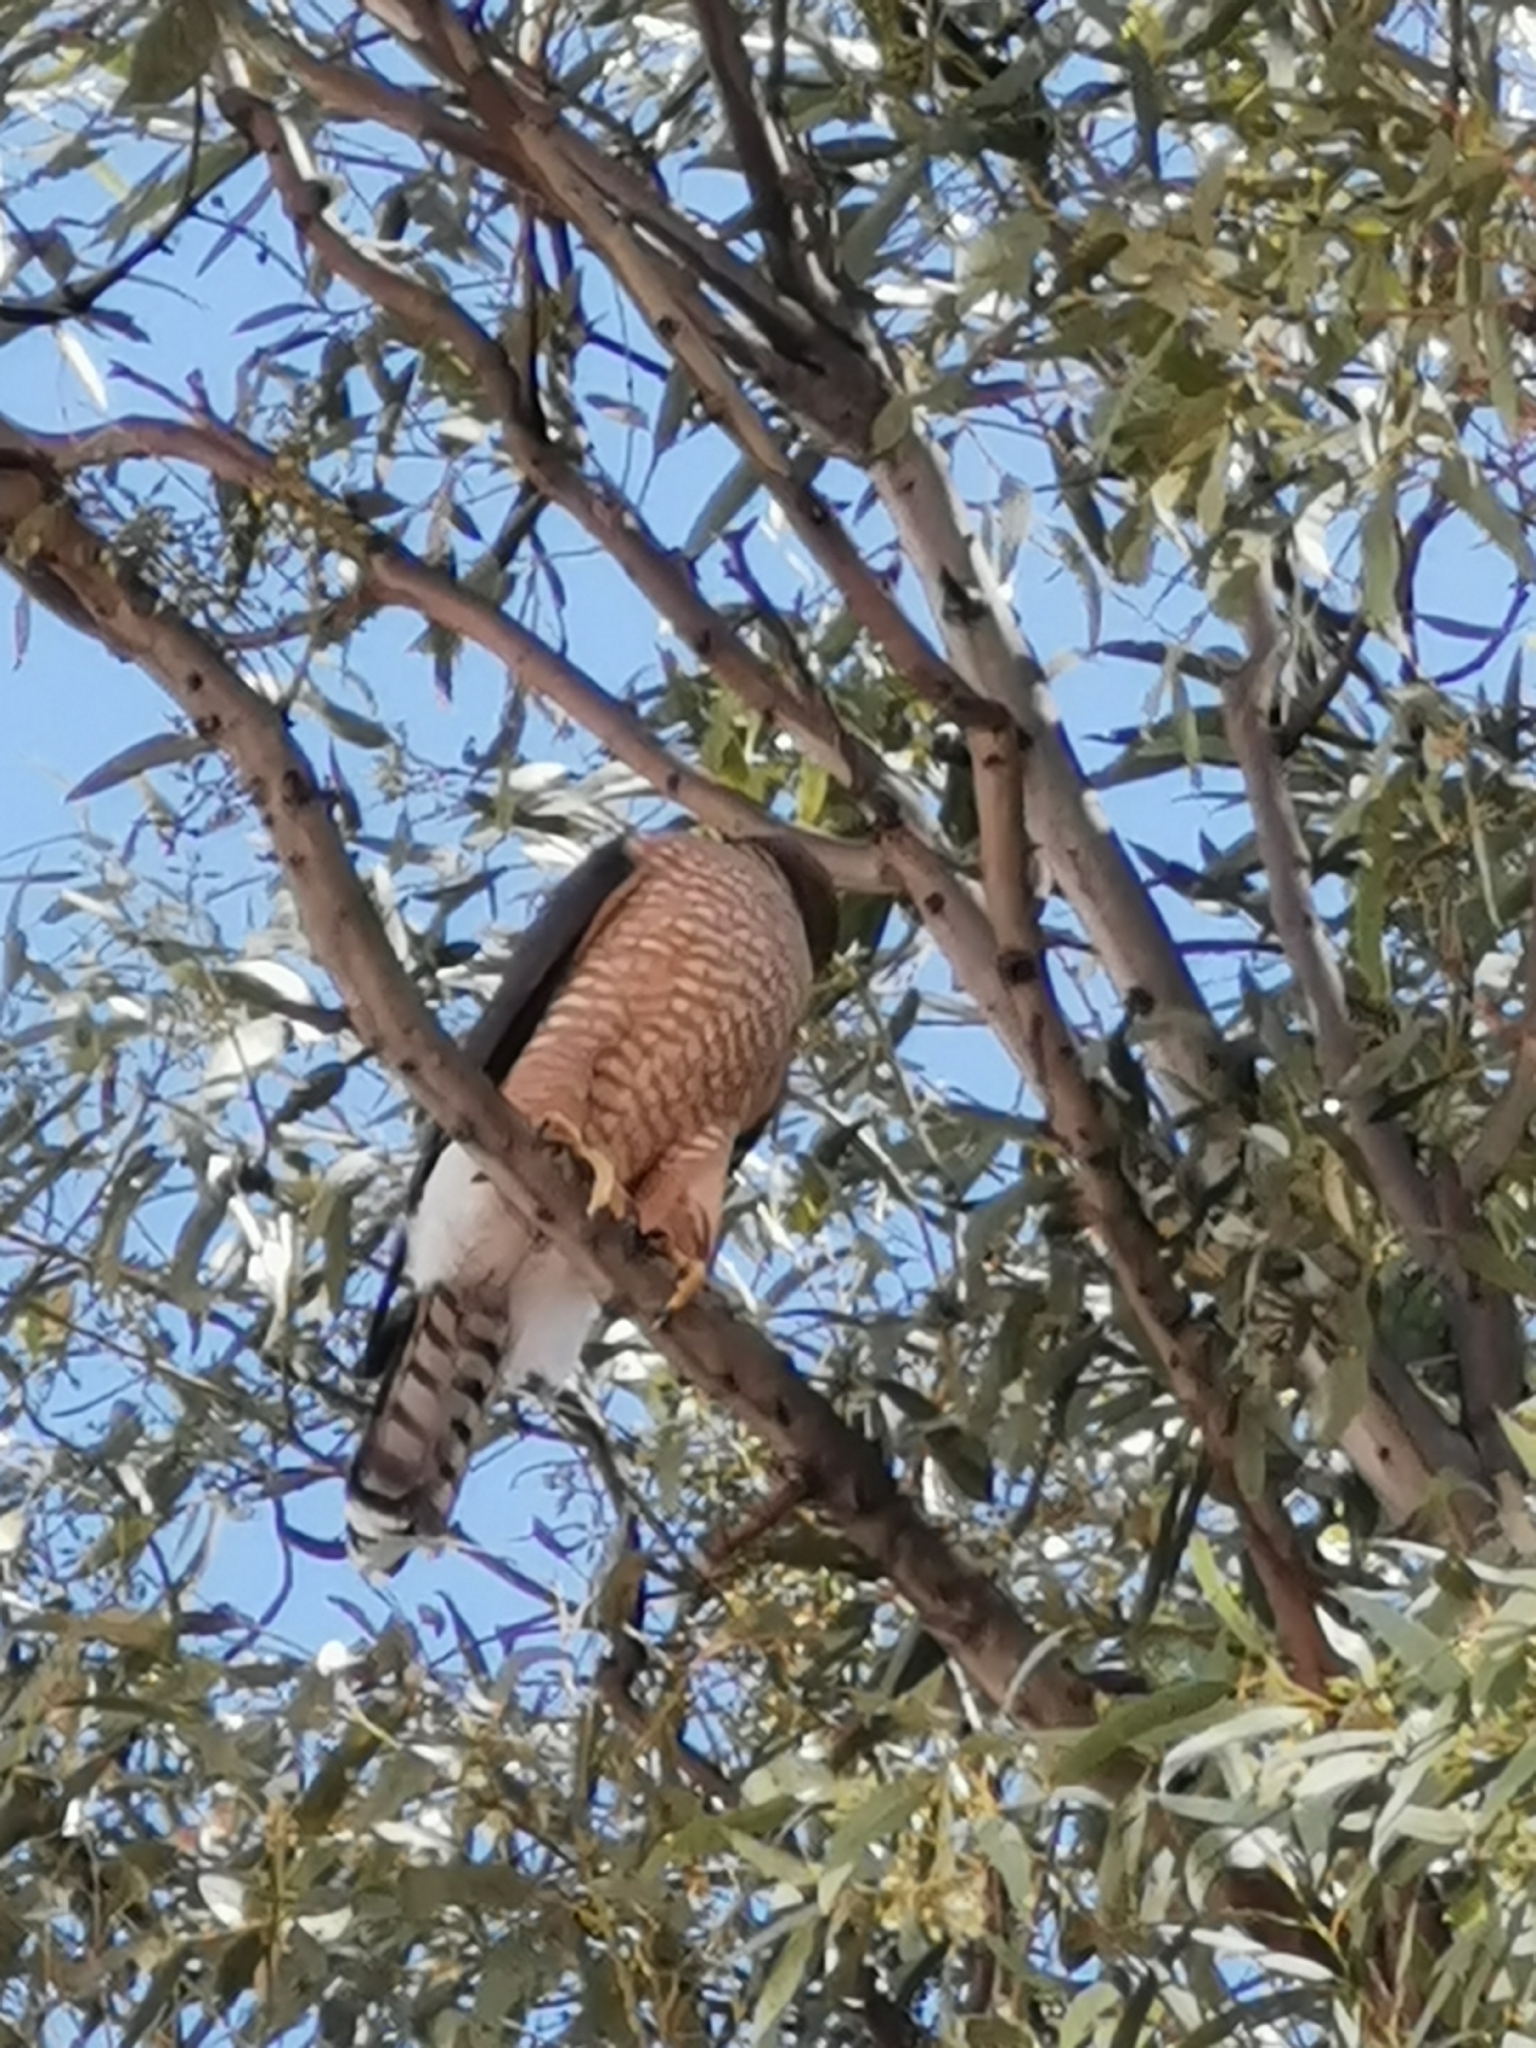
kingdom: Animalia
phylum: Chordata
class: Aves
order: Accipitriformes
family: Accipitridae
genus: Accipiter
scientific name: Accipiter cooperii
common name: Cooper's hawk
